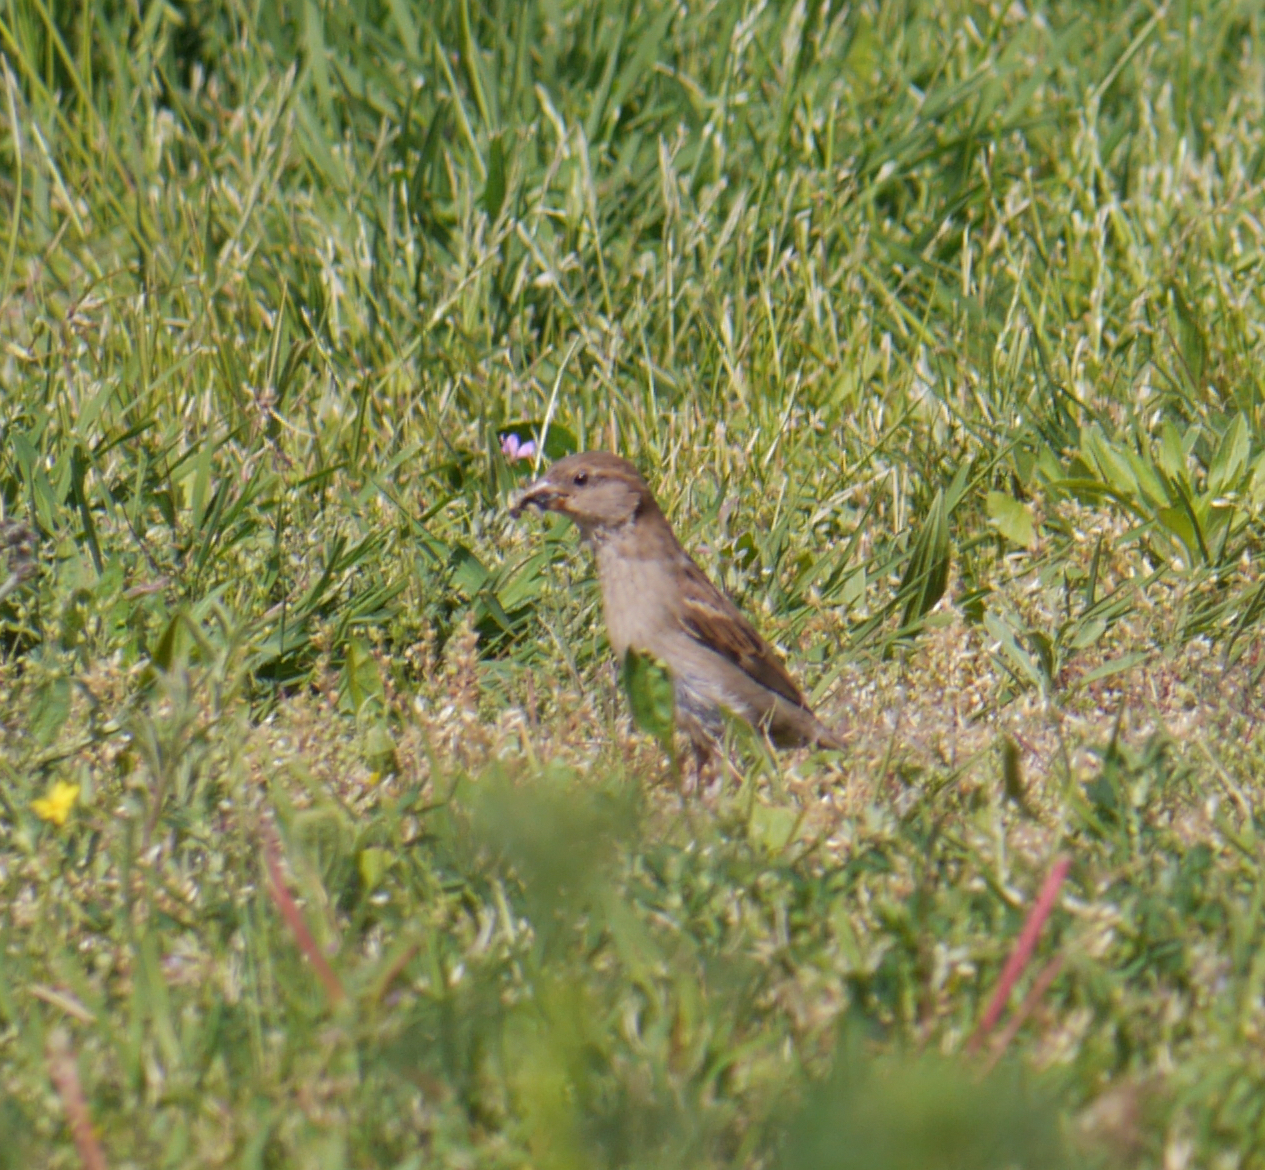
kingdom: Animalia
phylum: Chordata
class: Aves
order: Passeriformes
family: Passeridae
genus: Passer
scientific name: Passer domesticus
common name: House sparrow
